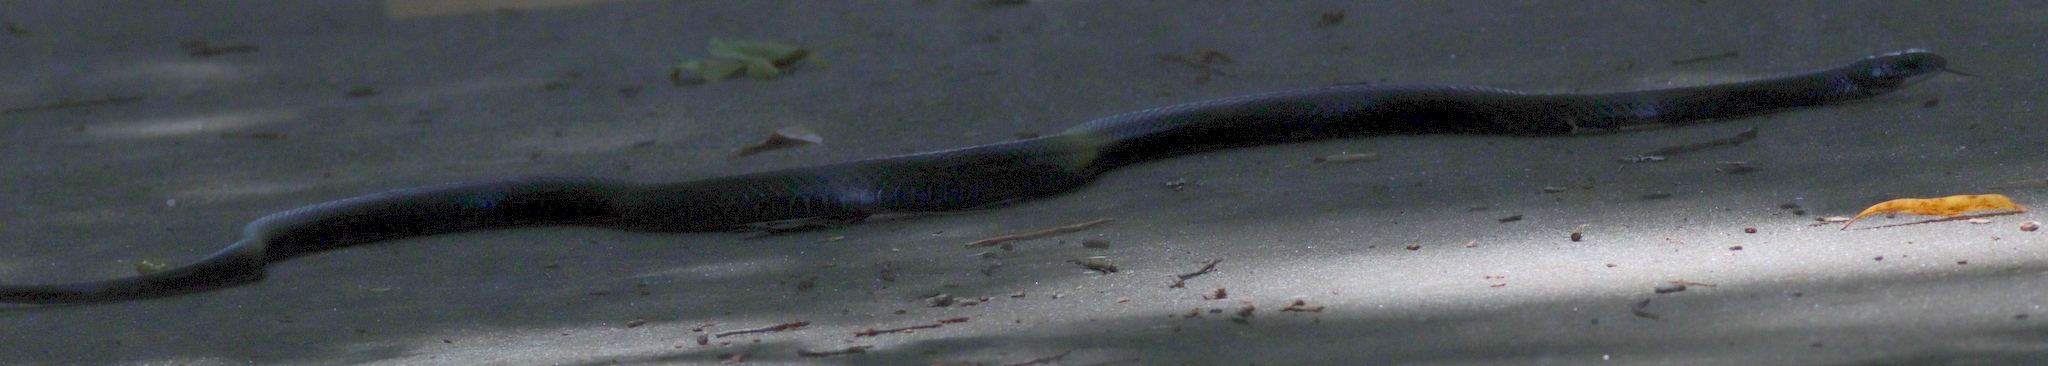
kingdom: Animalia
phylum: Chordata
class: Squamata
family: Colubridae
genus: Coluber
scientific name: Coluber constrictor
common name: Eastern racer
